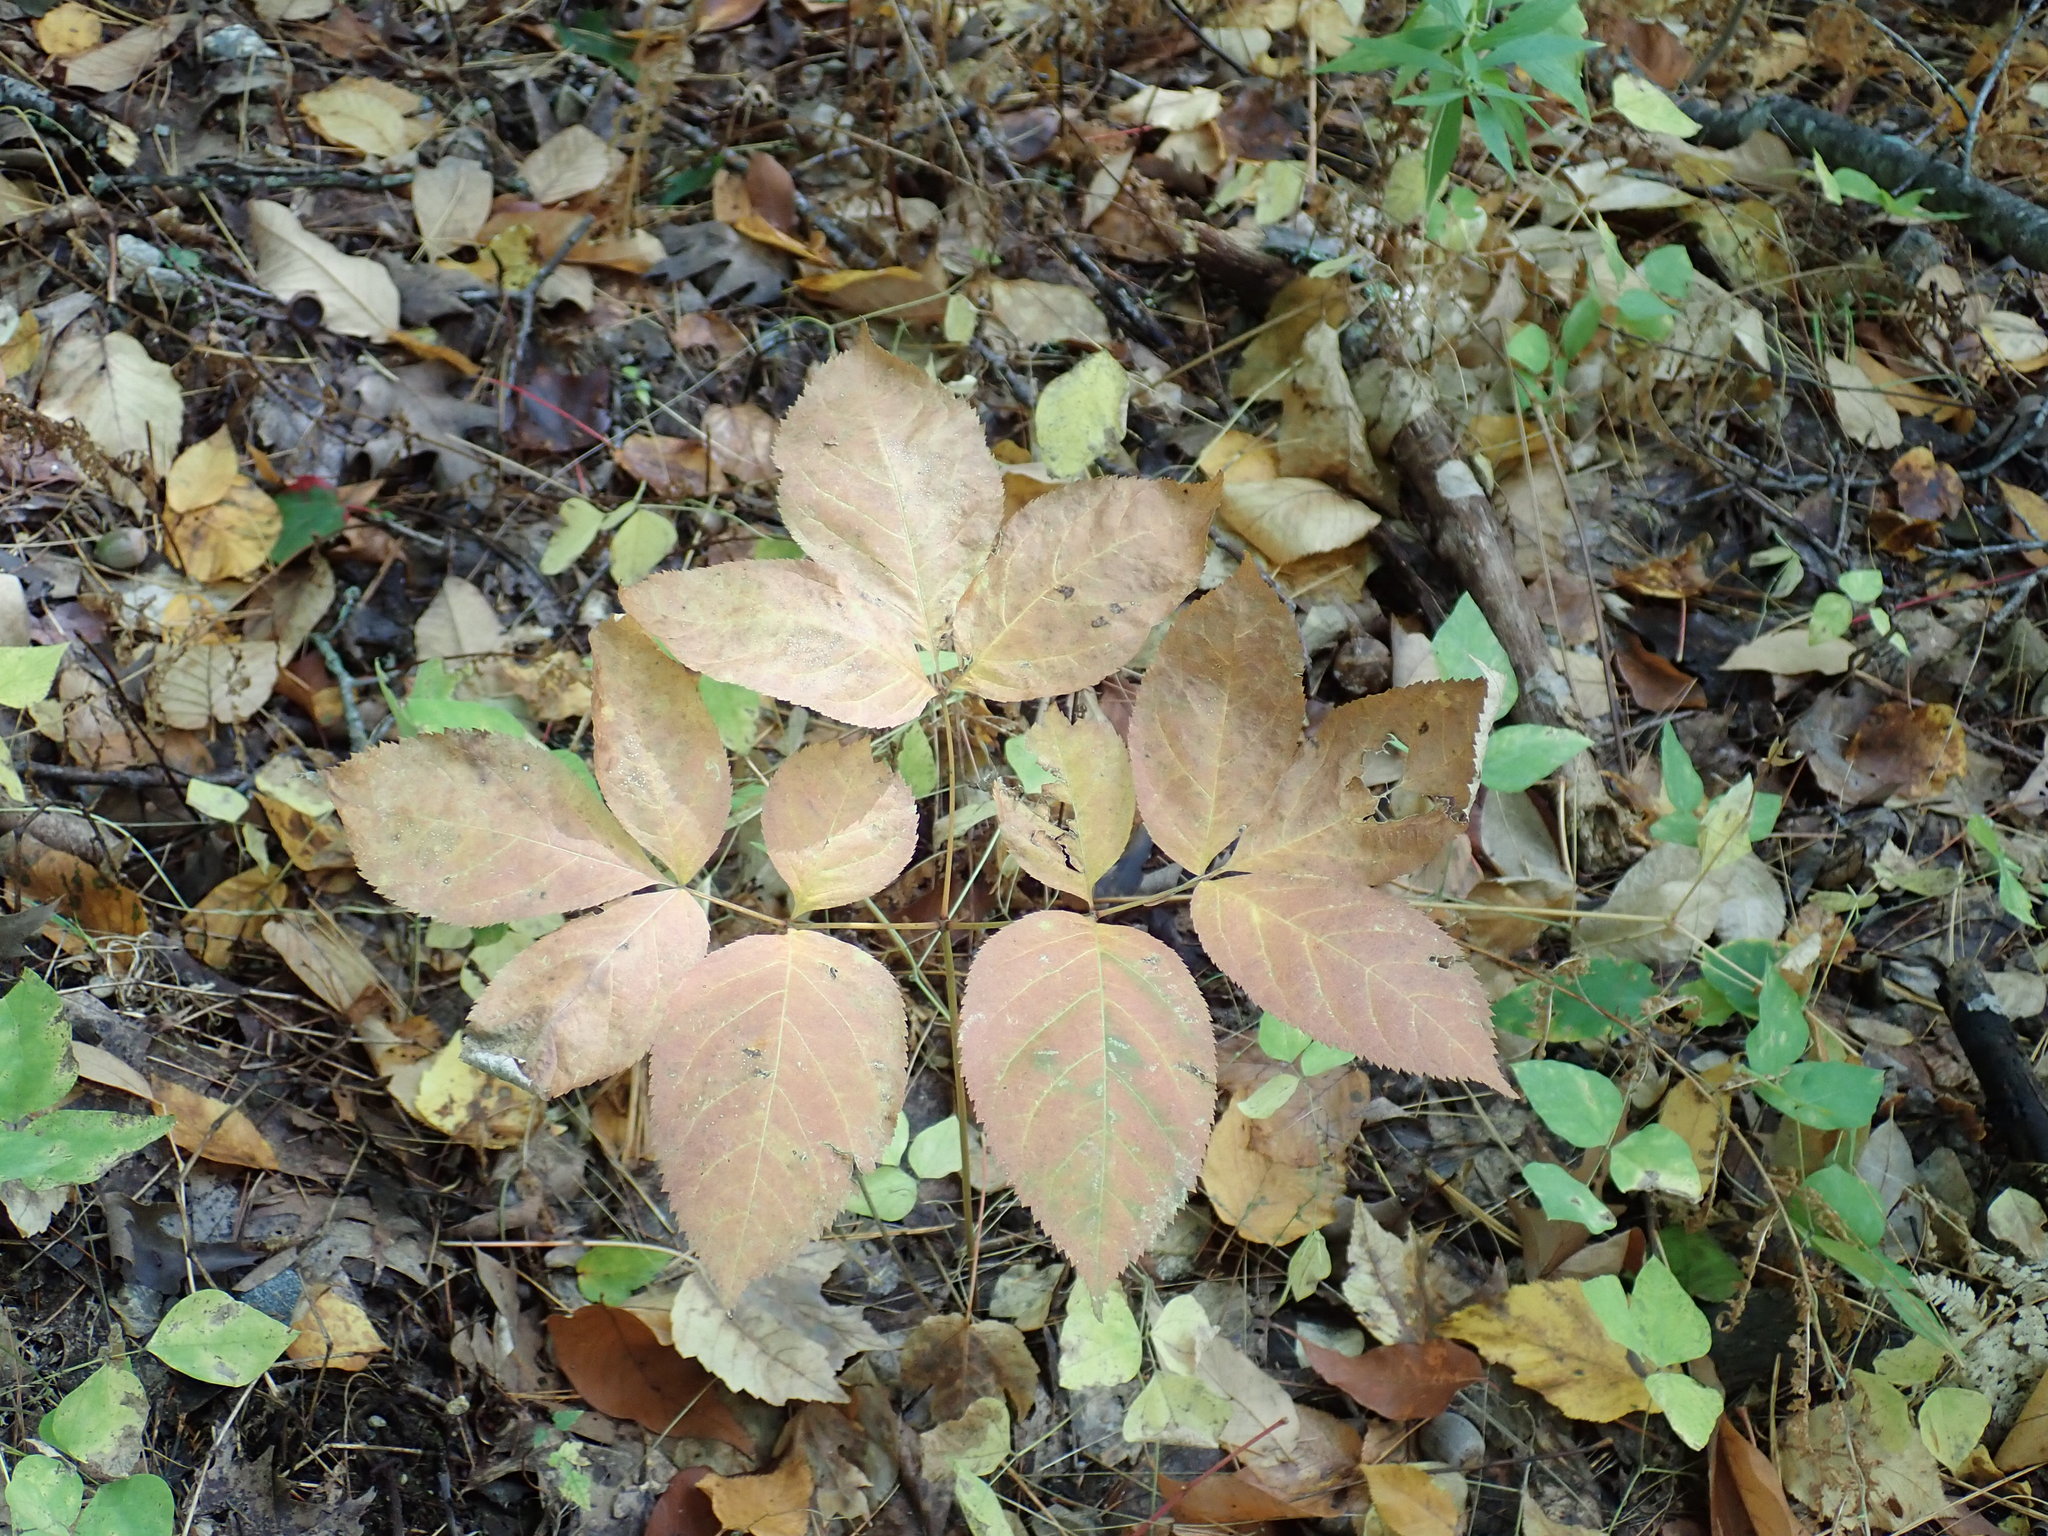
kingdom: Plantae
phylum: Tracheophyta
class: Magnoliopsida
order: Apiales
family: Araliaceae
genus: Aralia
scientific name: Aralia nudicaulis
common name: Wild sarsaparilla
